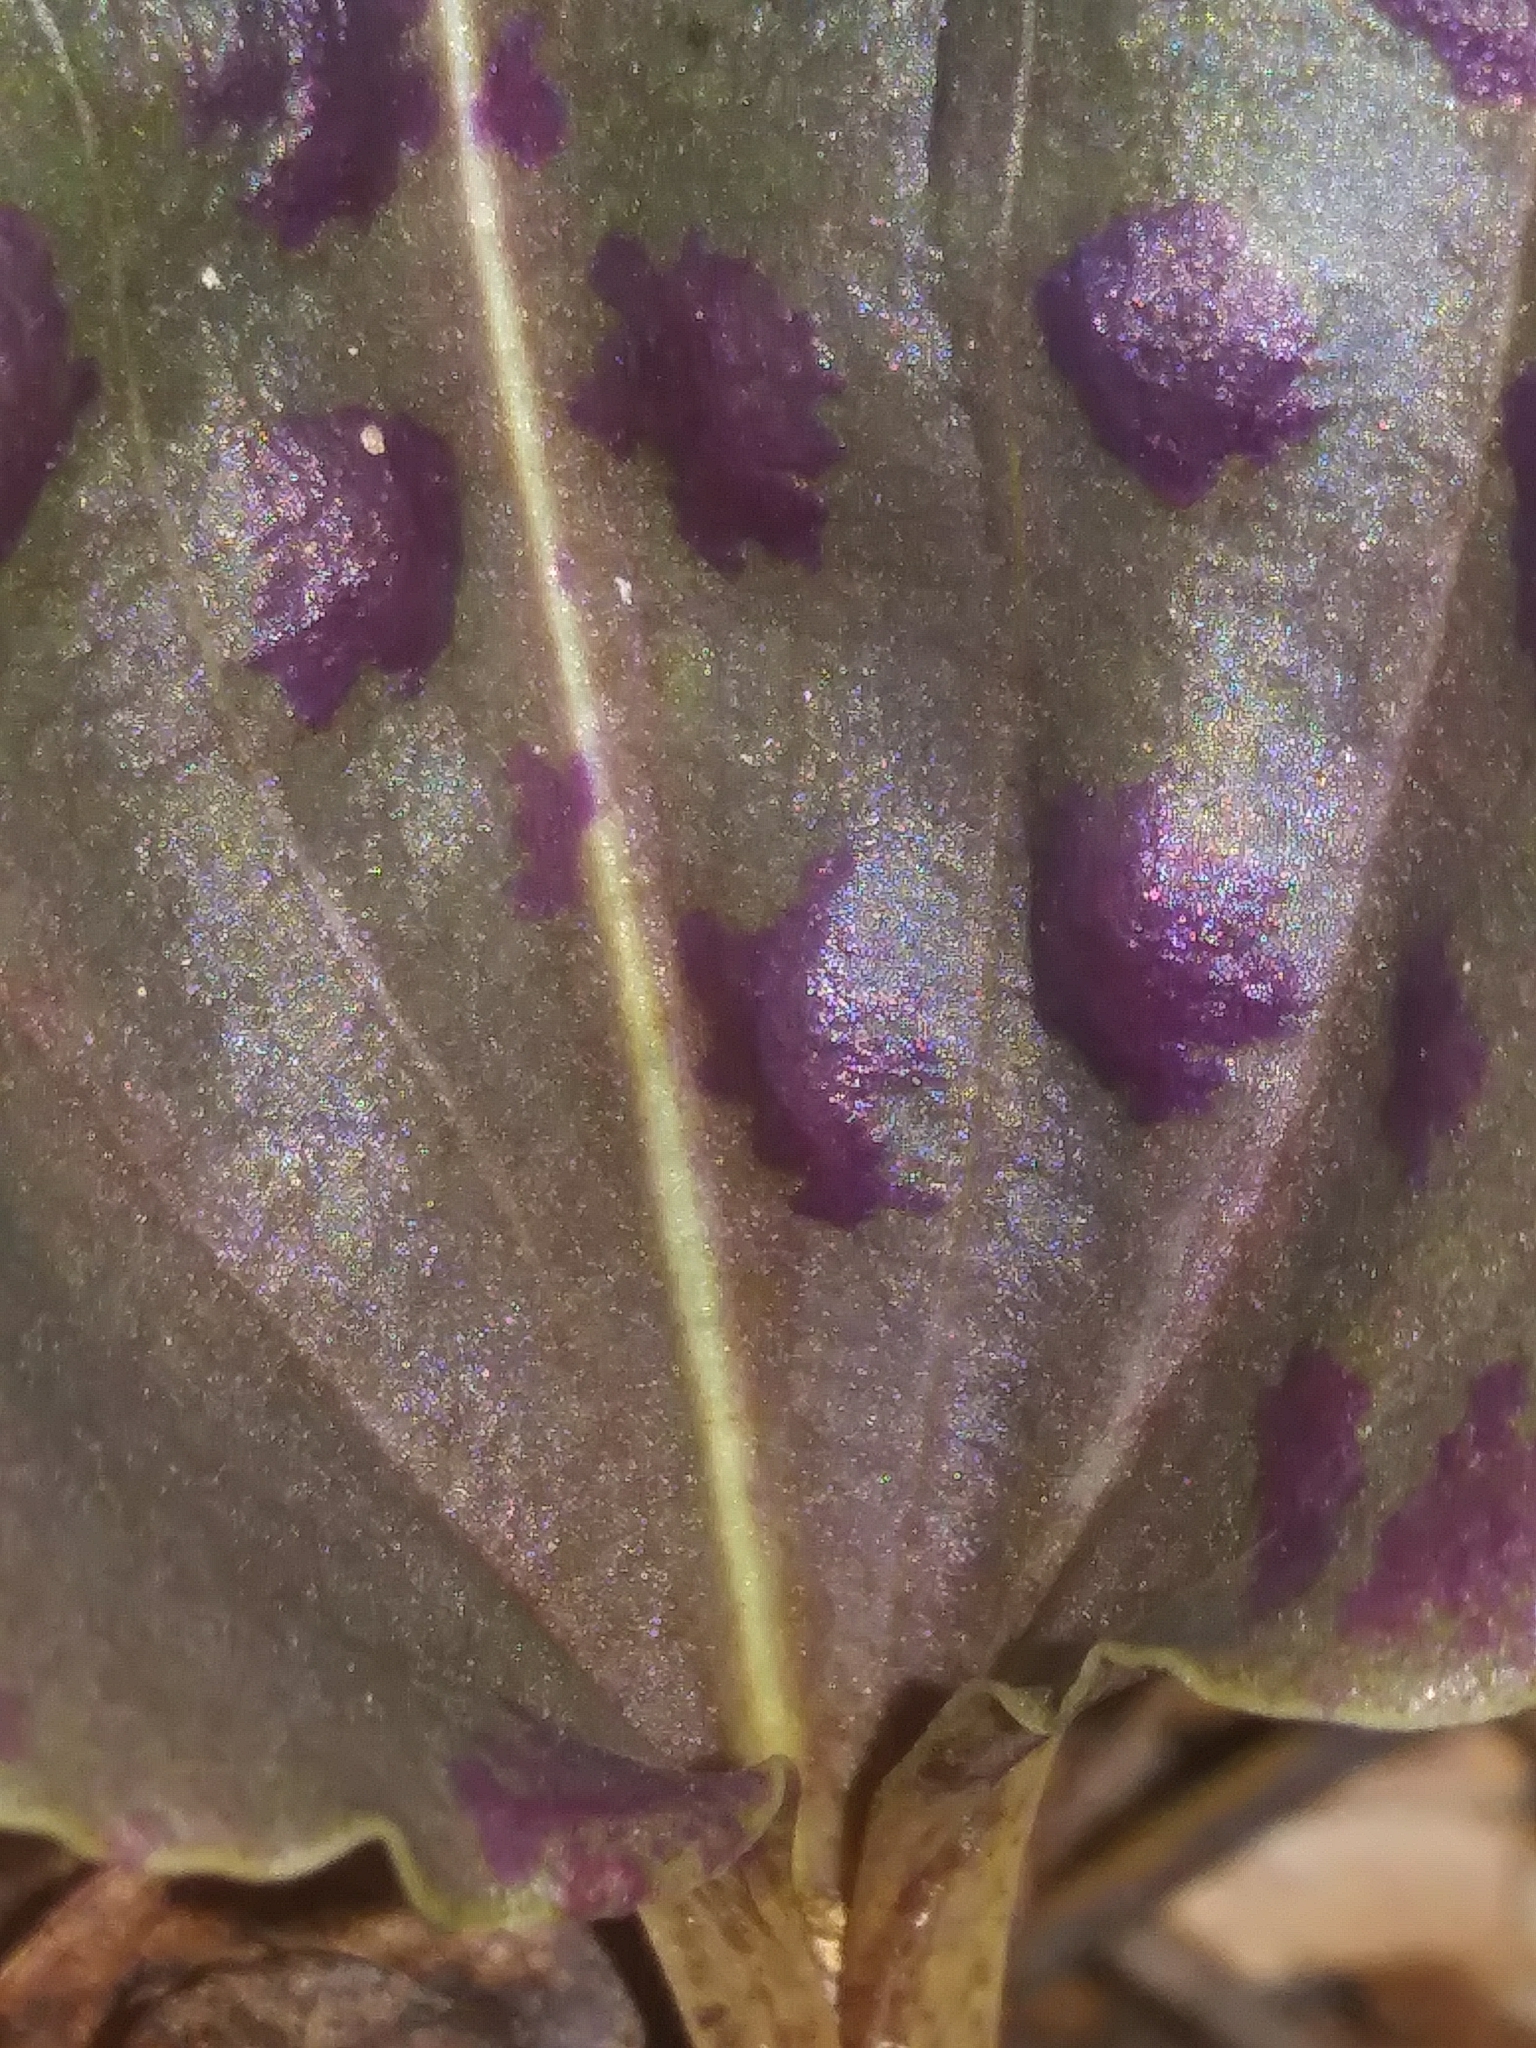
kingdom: Plantae
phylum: Tracheophyta
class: Liliopsida
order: Asparagales
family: Orchidaceae
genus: Tipularia
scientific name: Tipularia discolor
